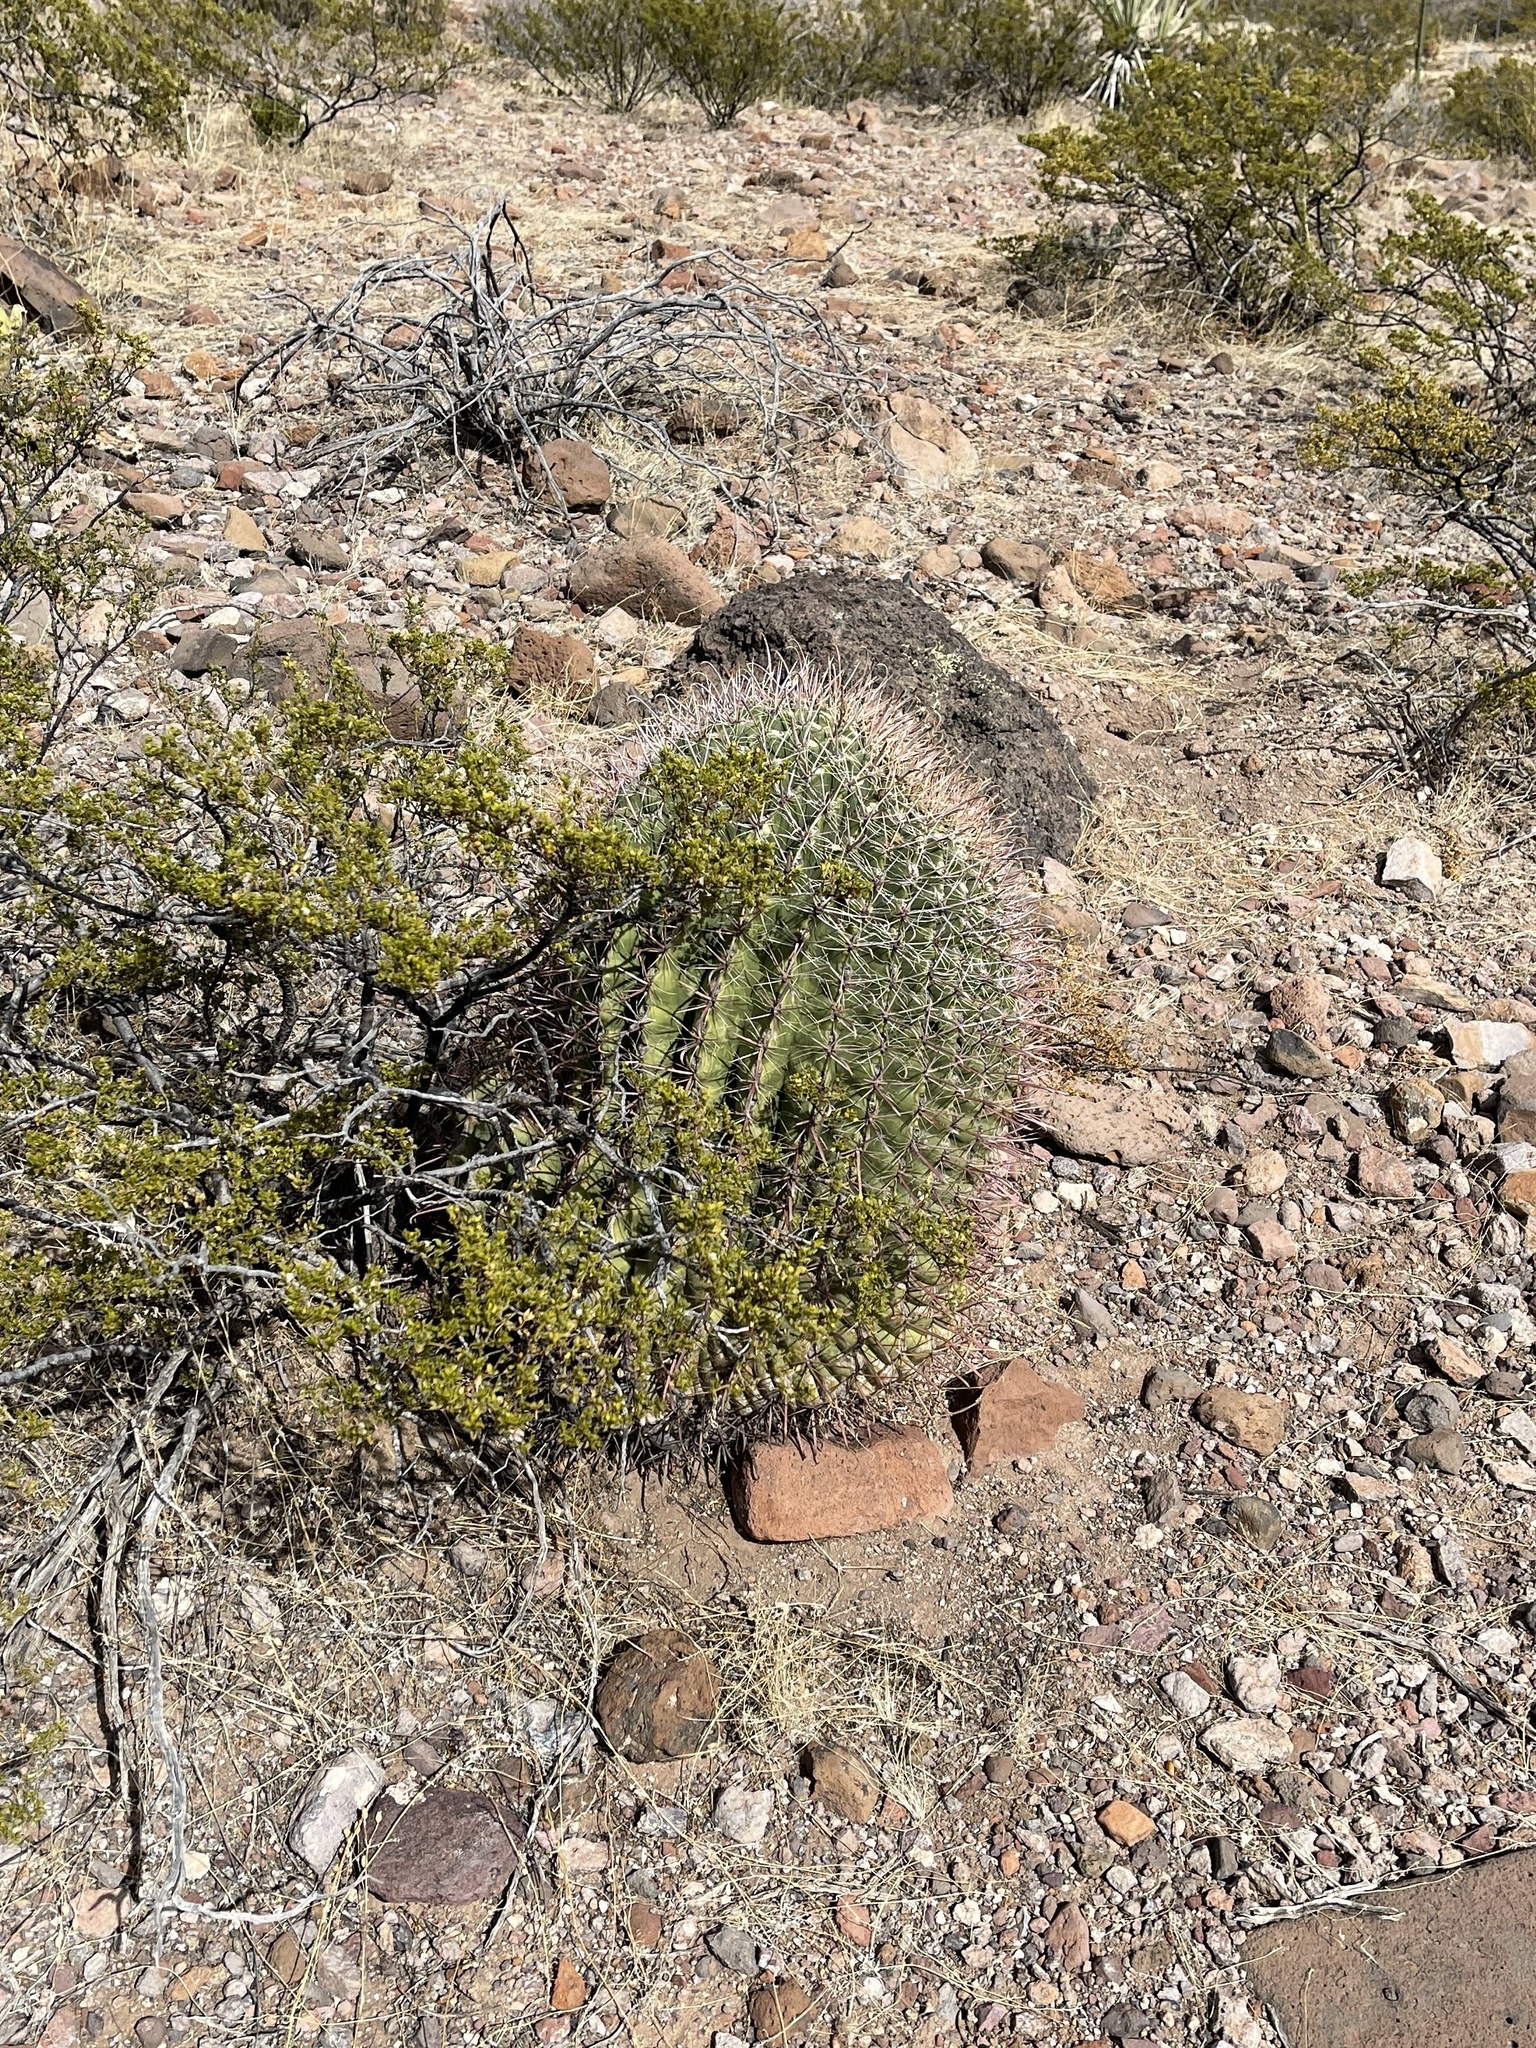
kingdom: Plantae
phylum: Tracheophyta
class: Magnoliopsida
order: Caryophyllales
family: Cactaceae
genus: Ferocactus
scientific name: Ferocactus wislizeni
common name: Candy barrel cactus
